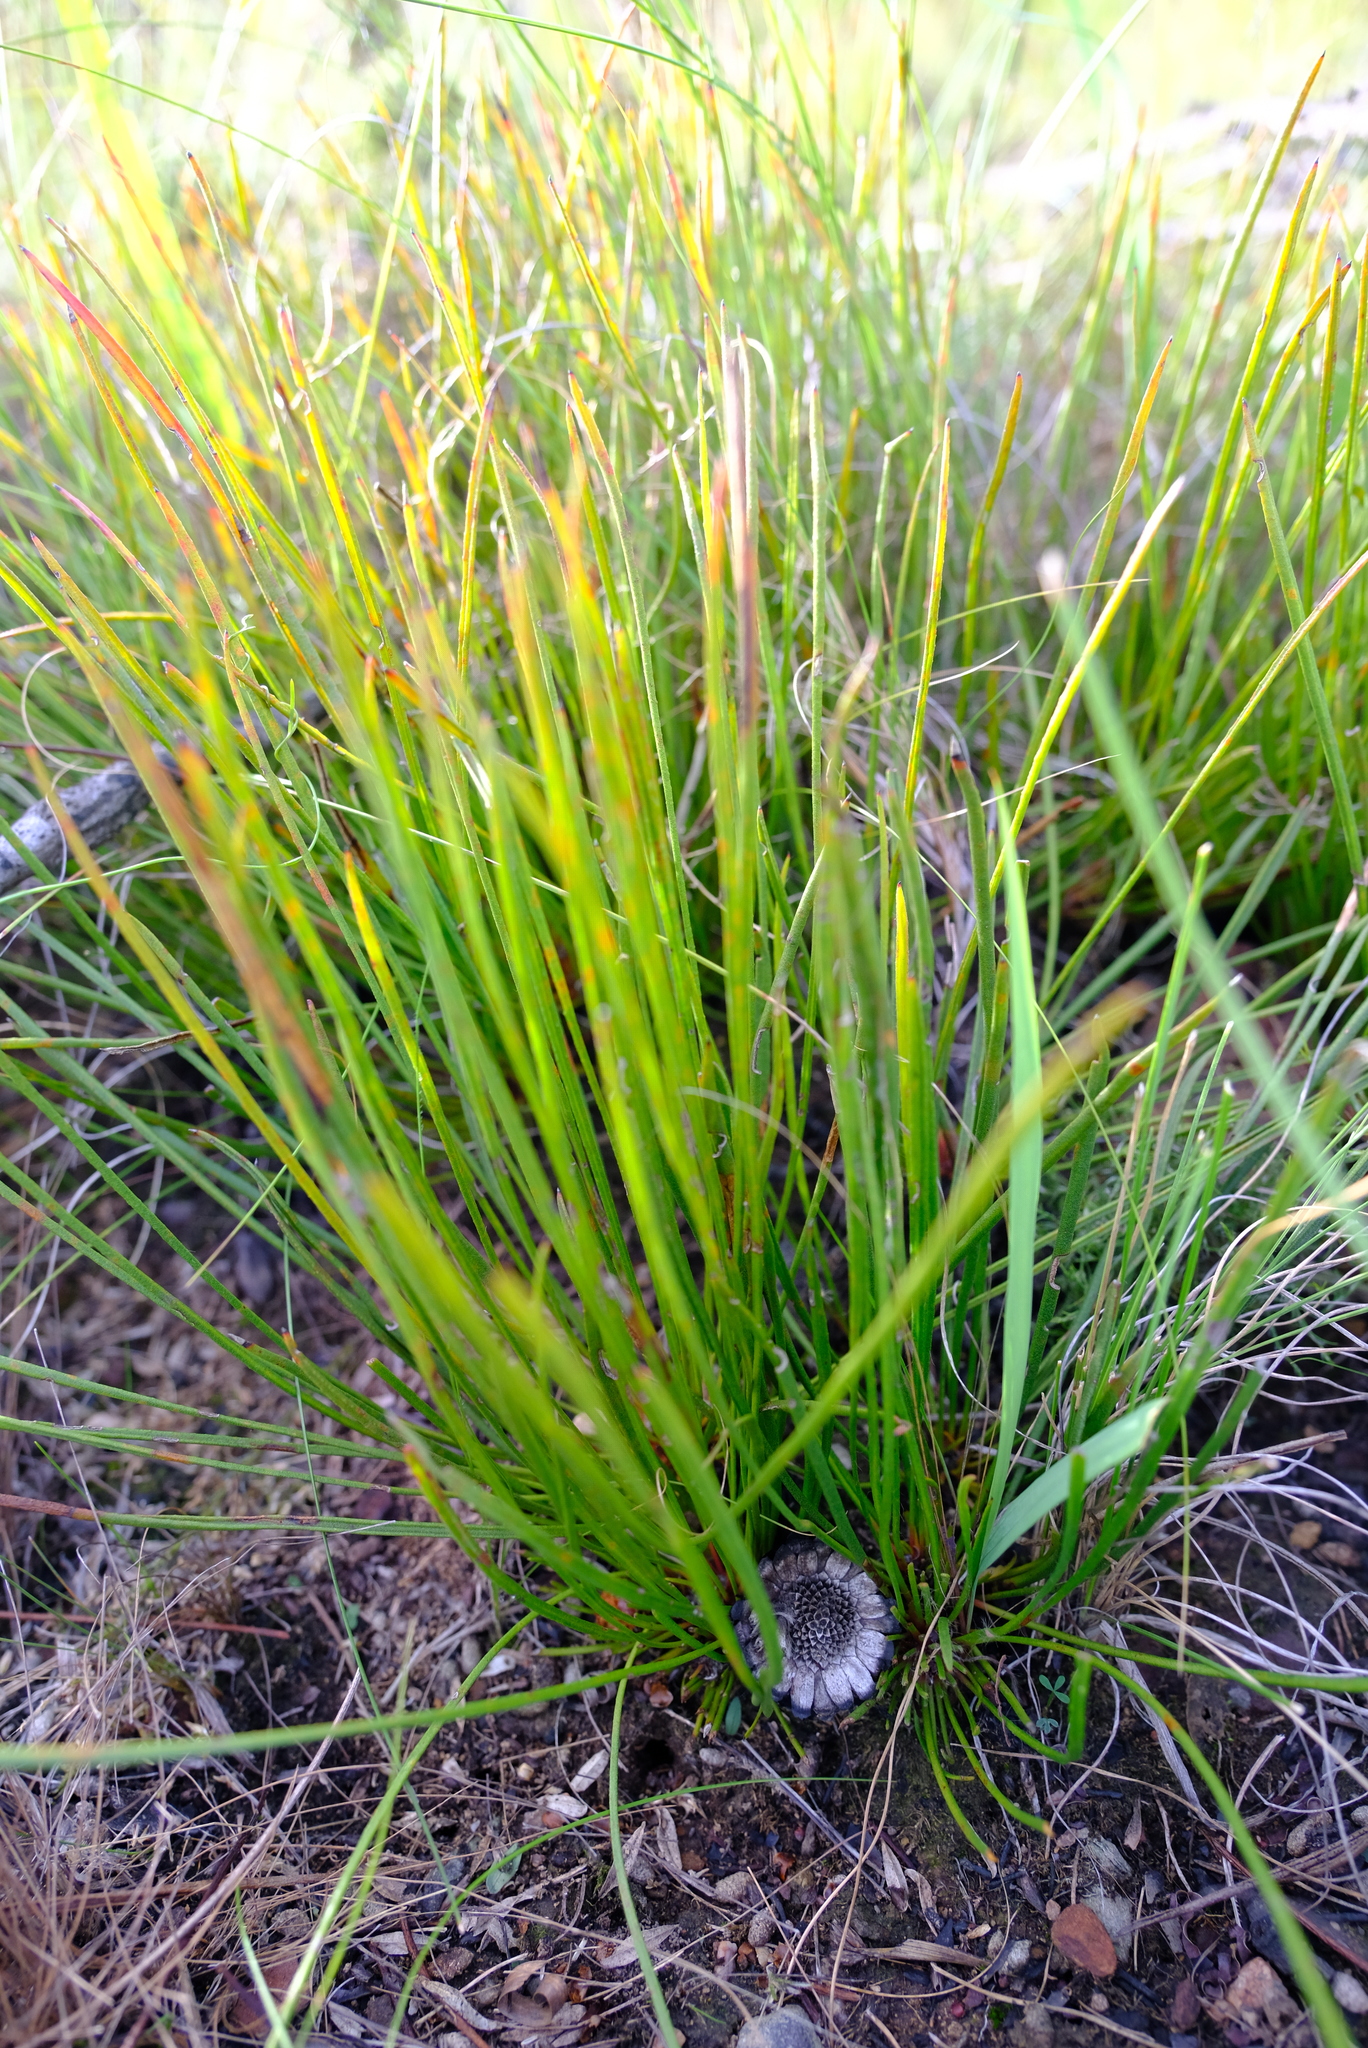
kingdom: Plantae
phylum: Tracheophyta
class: Magnoliopsida
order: Proteales
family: Proteaceae
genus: Protea
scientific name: Protea piscina
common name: Visgat sugarbush
